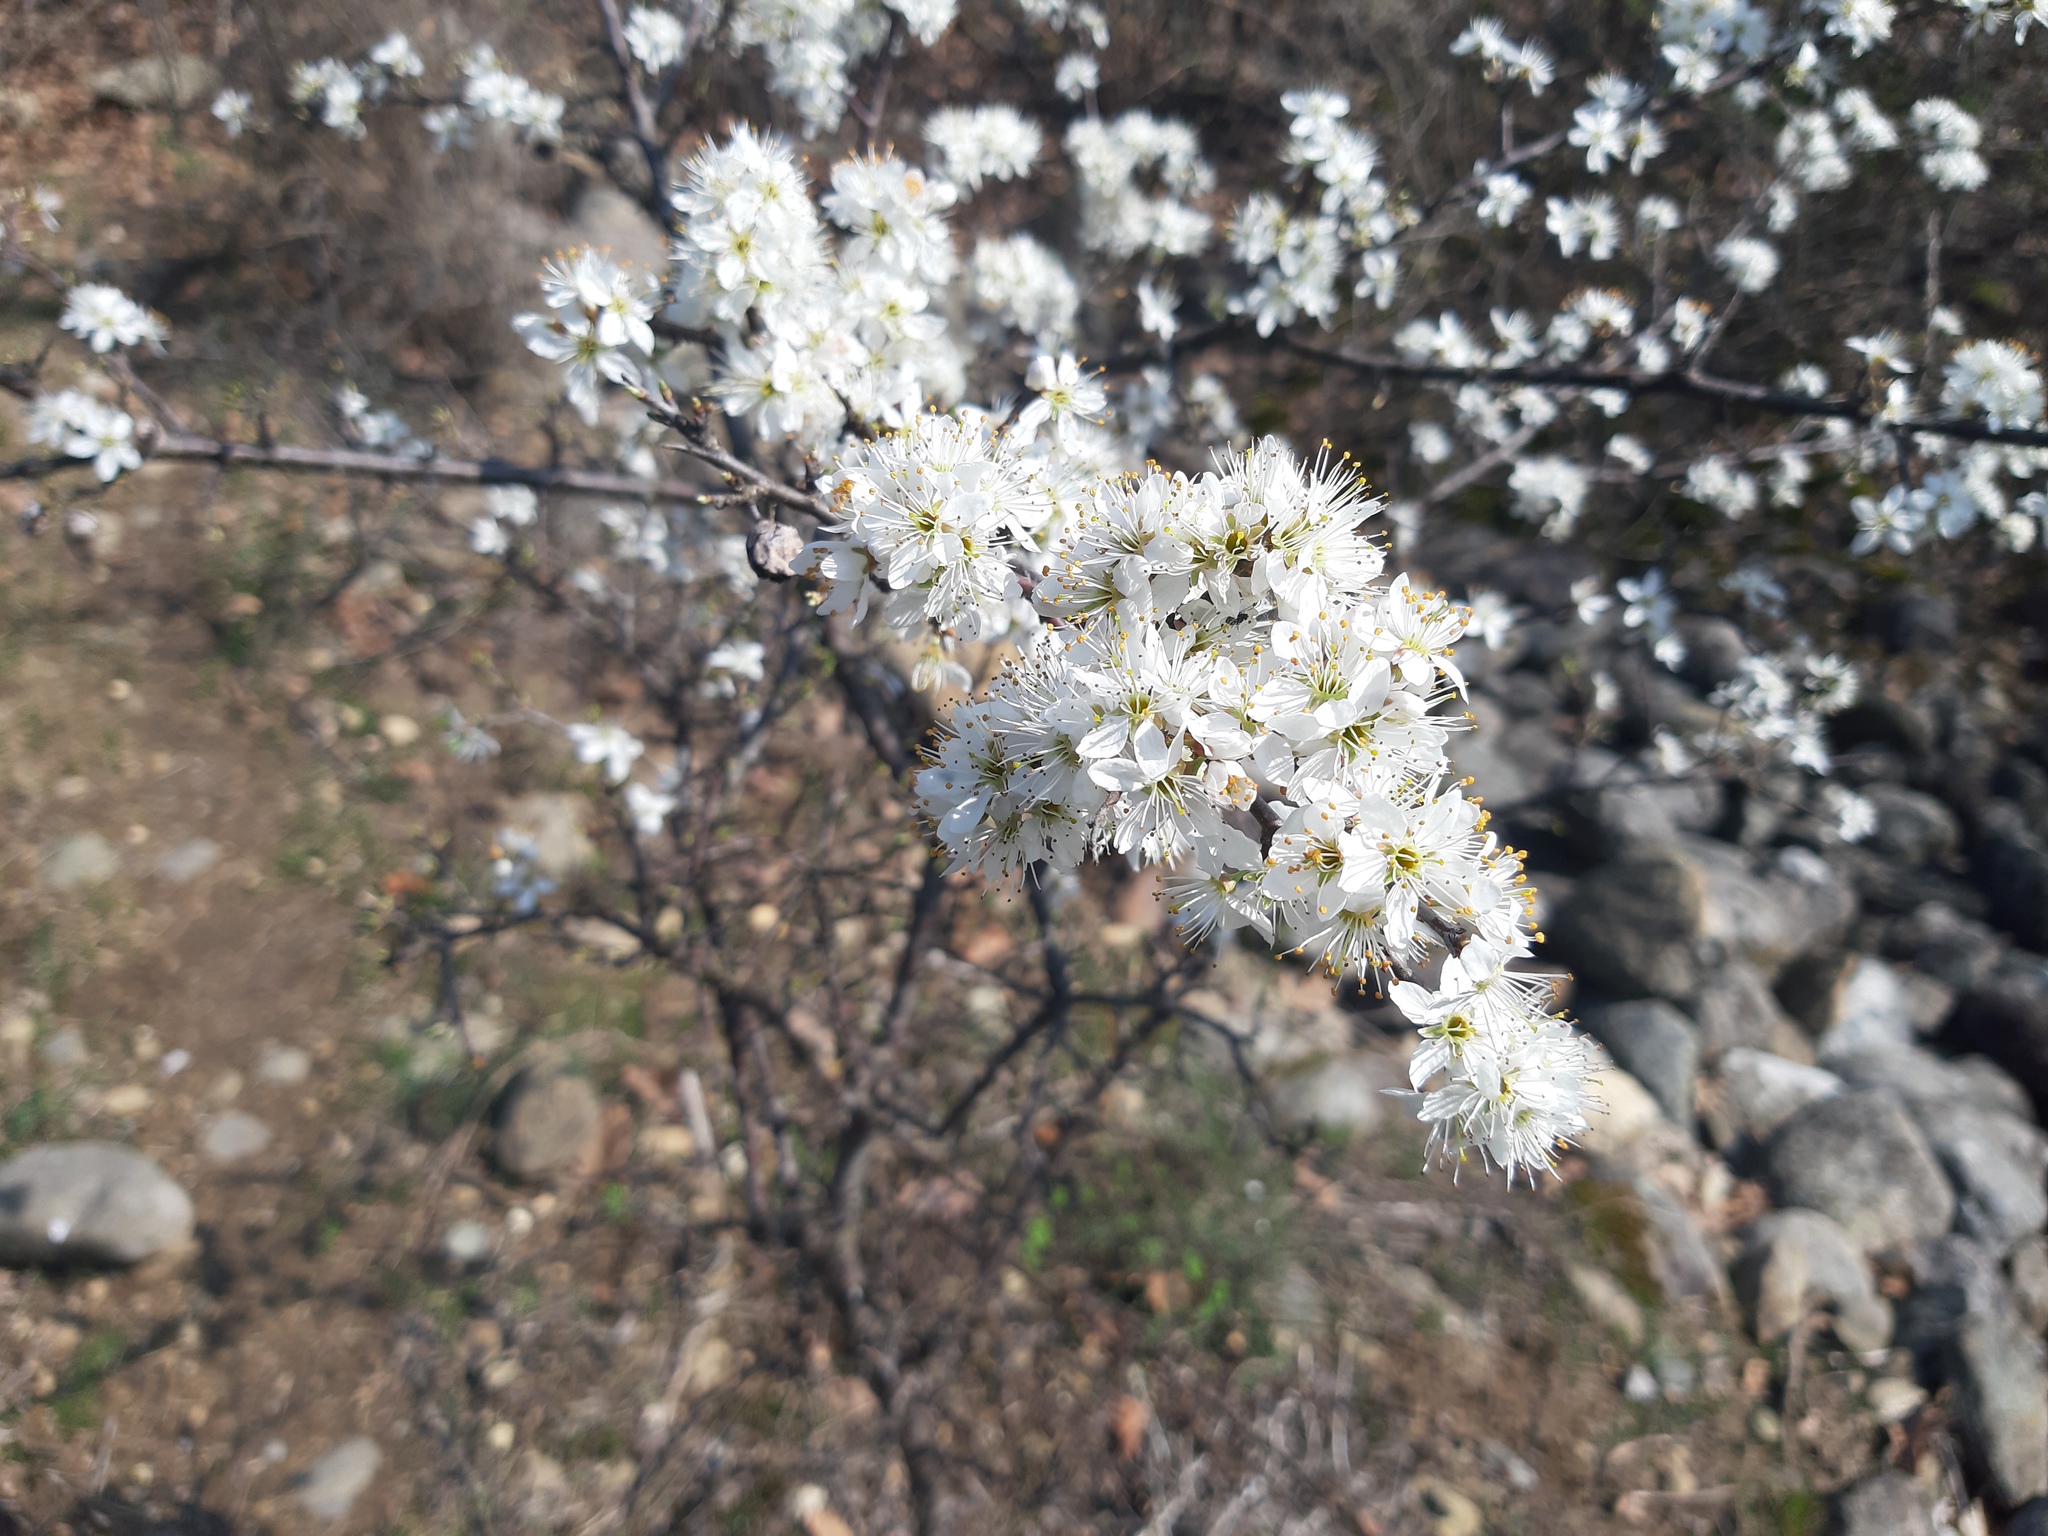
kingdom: Plantae
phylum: Tracheophyta
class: Magnoliopsida
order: Rosales
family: Rosaceae
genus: Prunus
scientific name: Prunus spinosa
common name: Blackthorn
